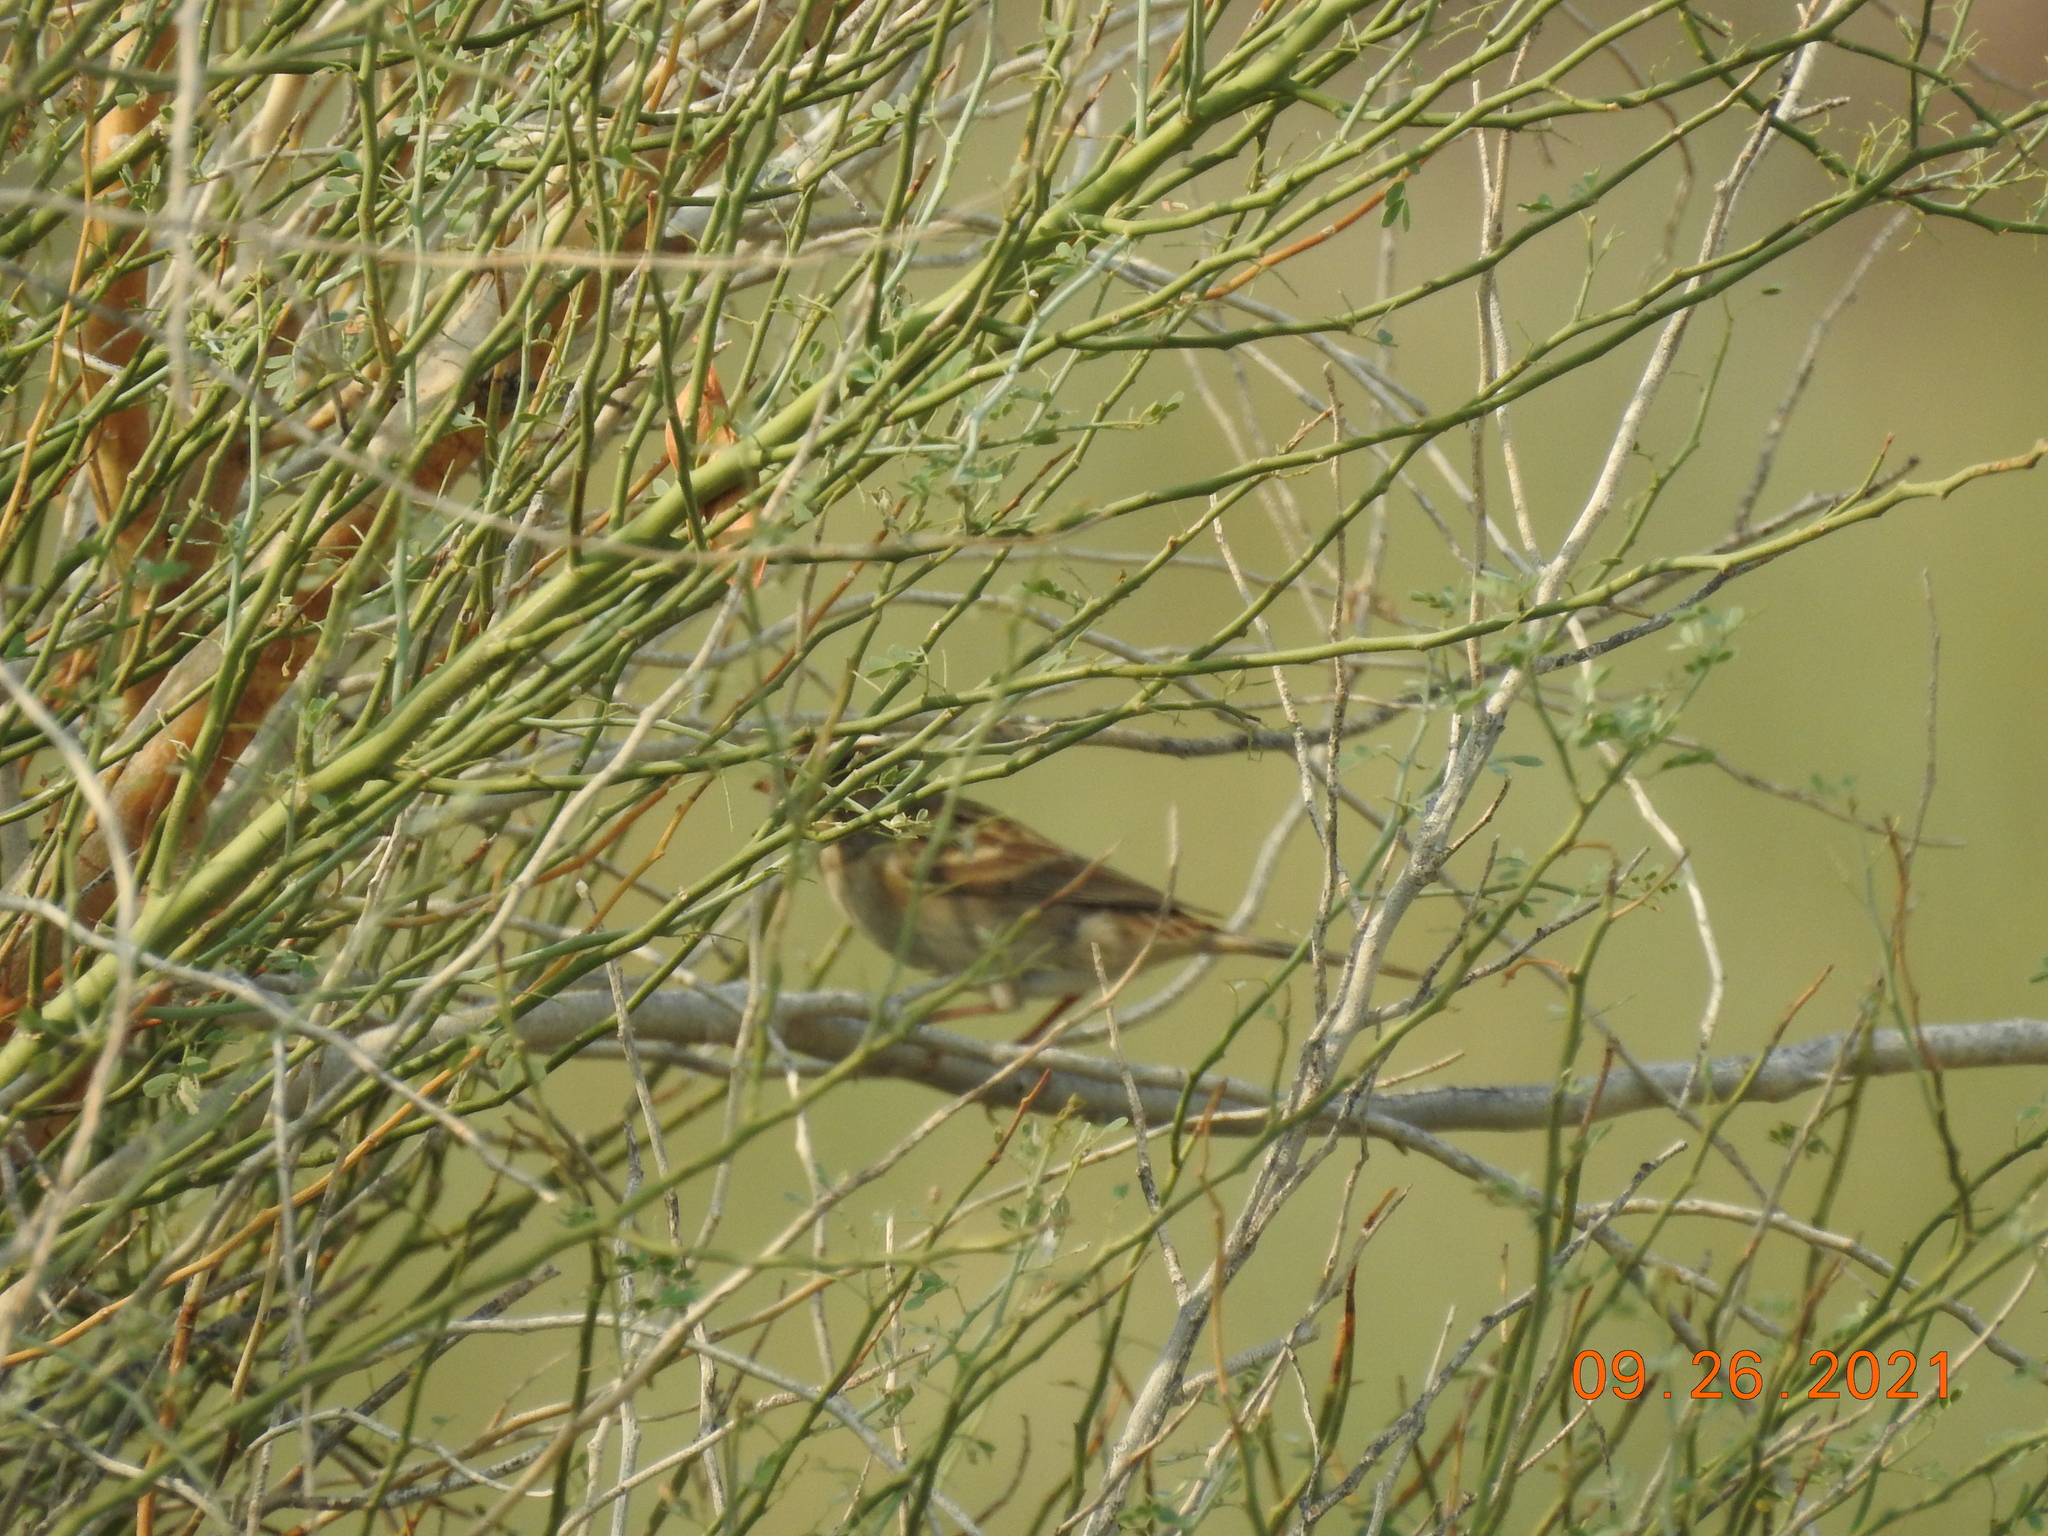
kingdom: Animalia
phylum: Chordata
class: Aves
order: Passeriformes
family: Passerellidae
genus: Spizella
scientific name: Spizella breweri
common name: Brewer's sparrow
